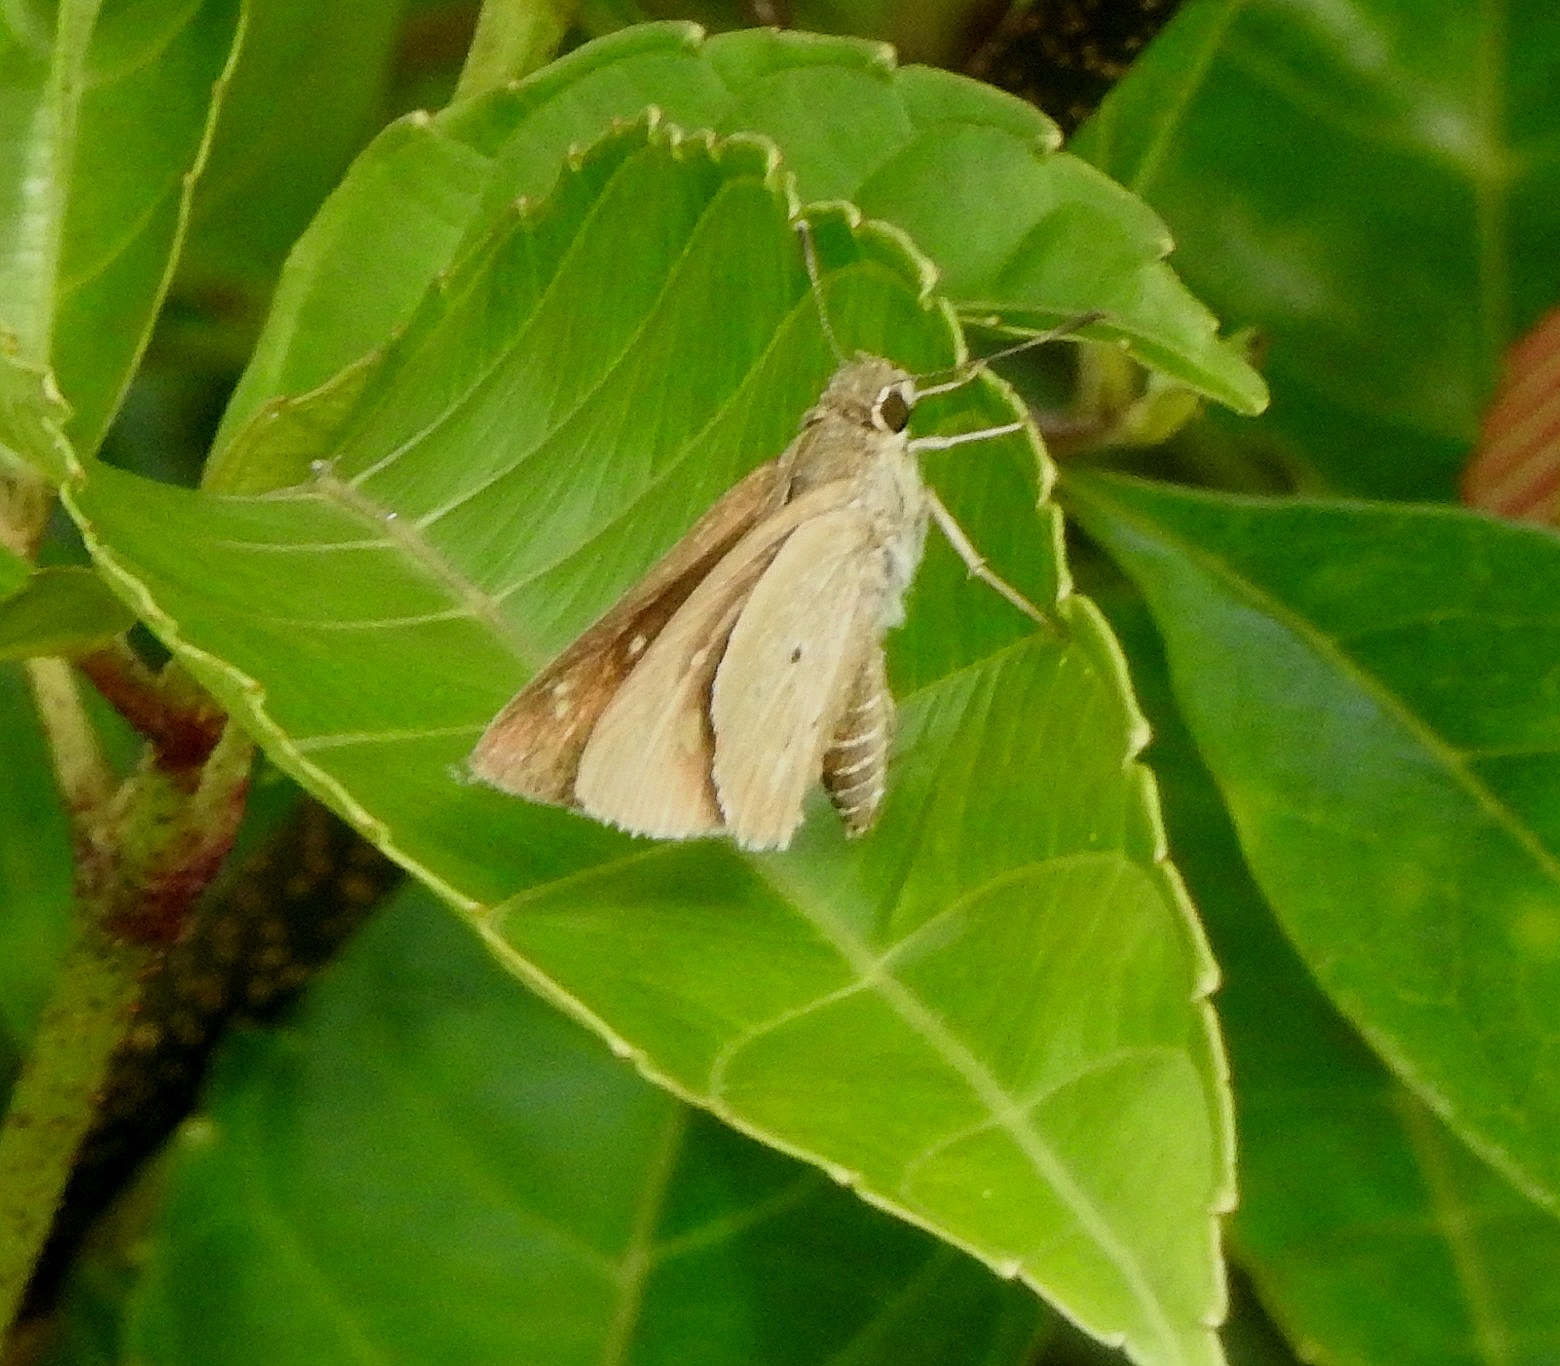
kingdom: Animalia
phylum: Arthropoda
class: Insecta
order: Lepidoptera
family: Hesperiidae
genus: Suastus
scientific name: Suastus gremius
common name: Indian palm bob
